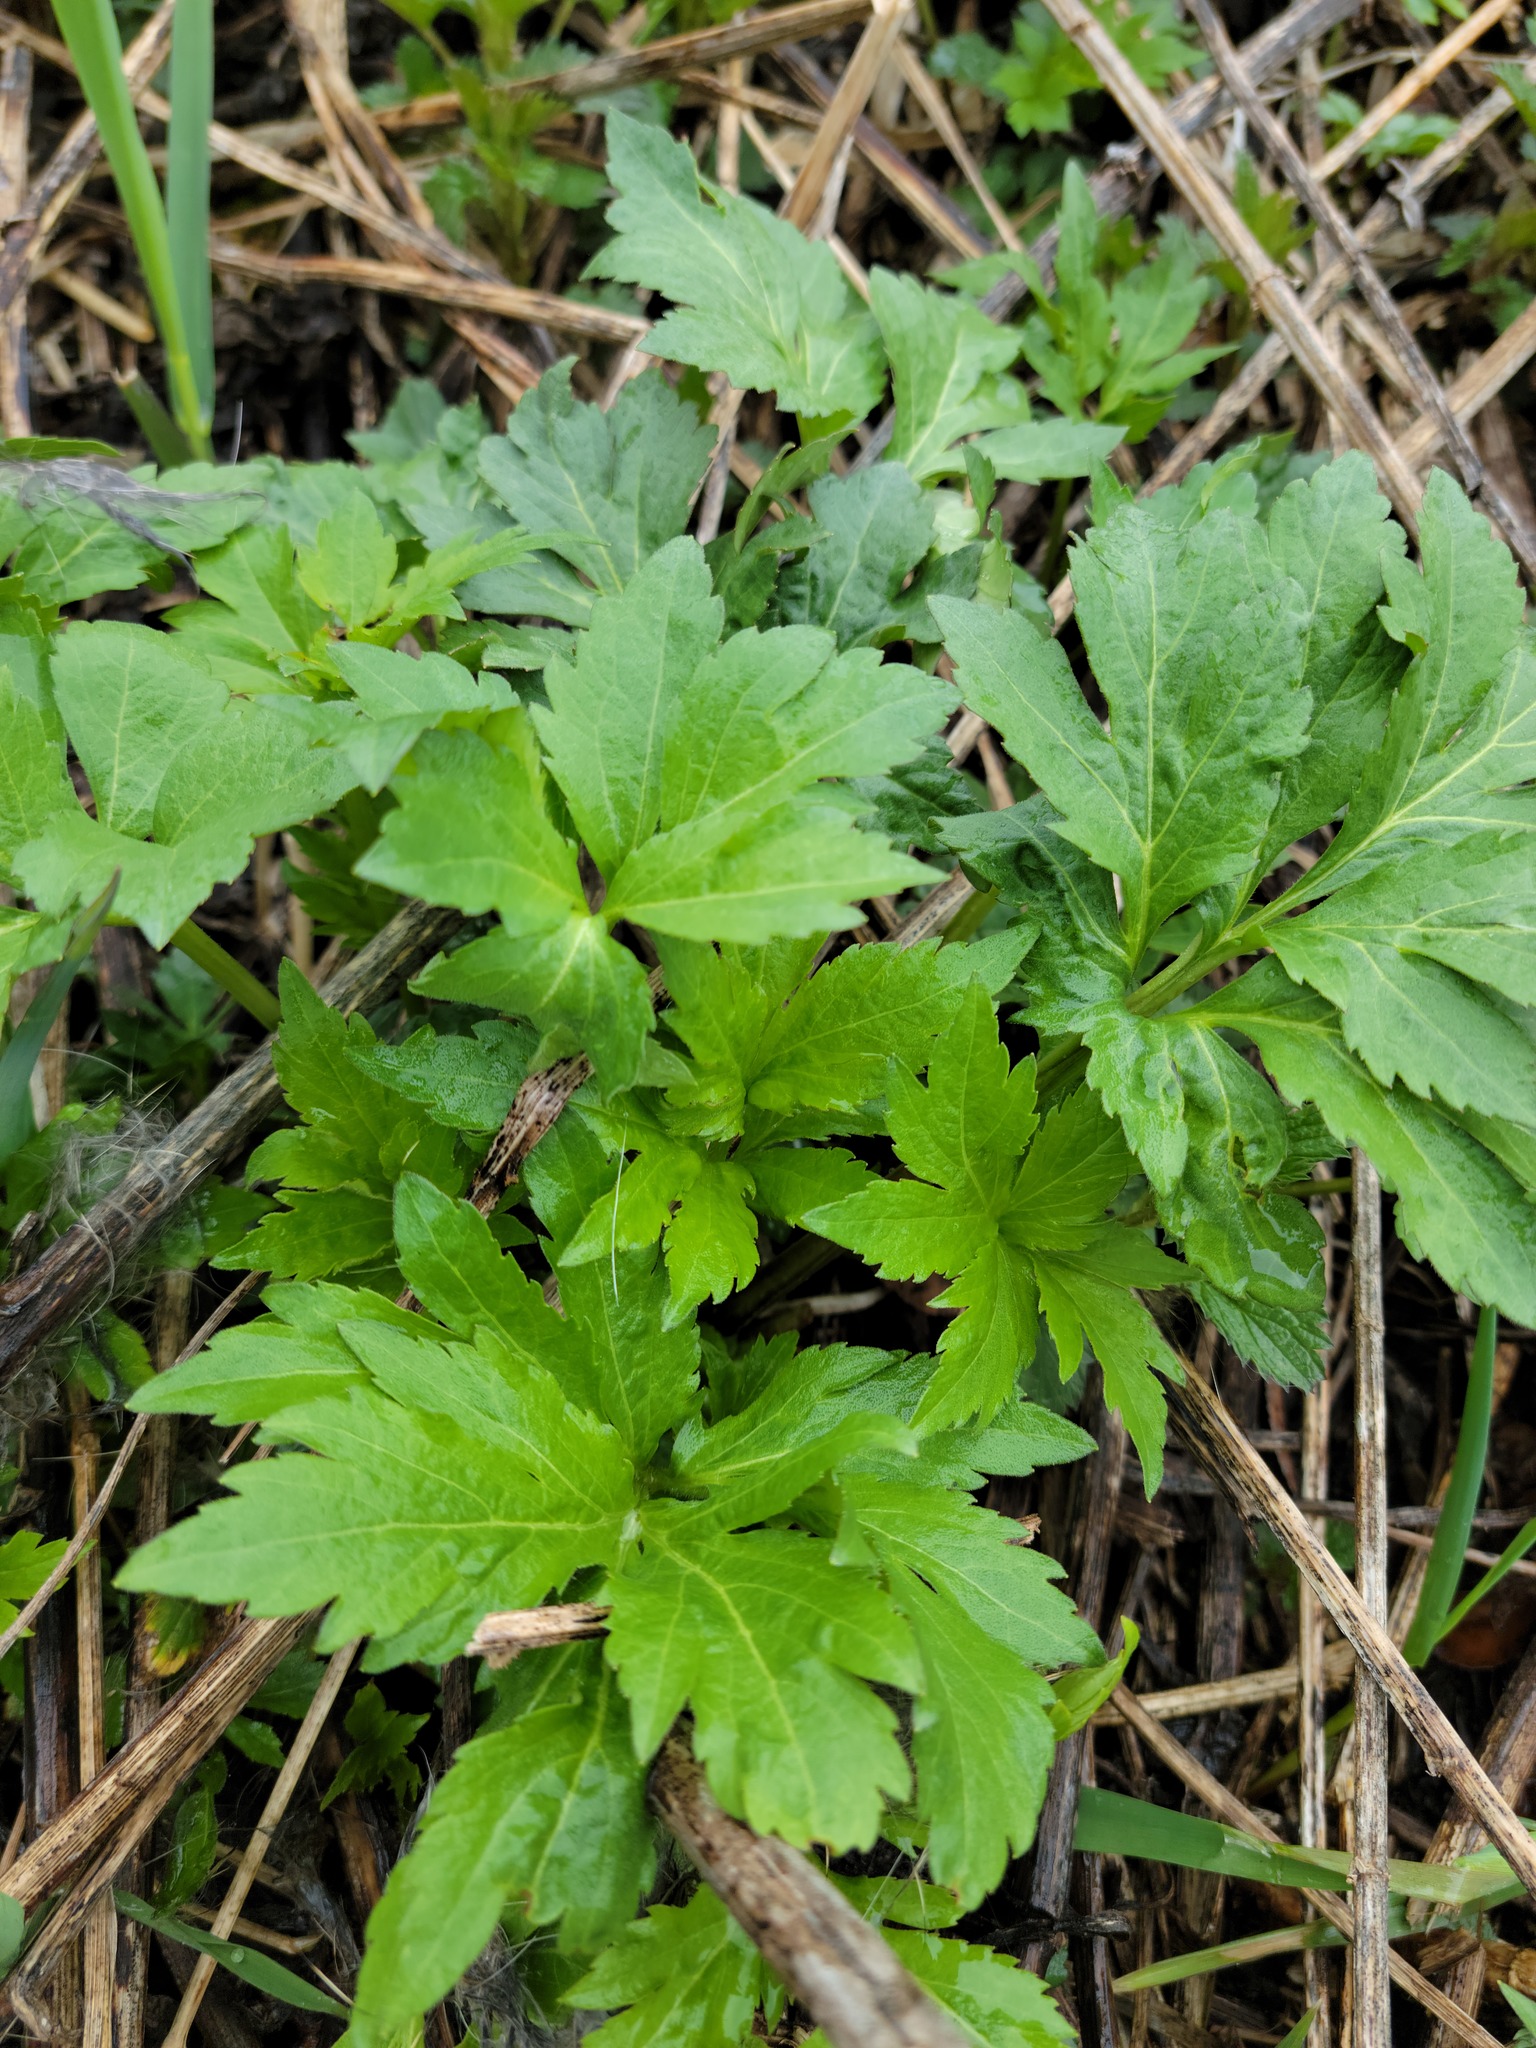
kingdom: Plantae
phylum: Tracheophyta
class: Magnoliopsida
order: Asterales
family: Asteraceae
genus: Rudbeckia
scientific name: Rudbeckia laciniata
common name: Coneflower
